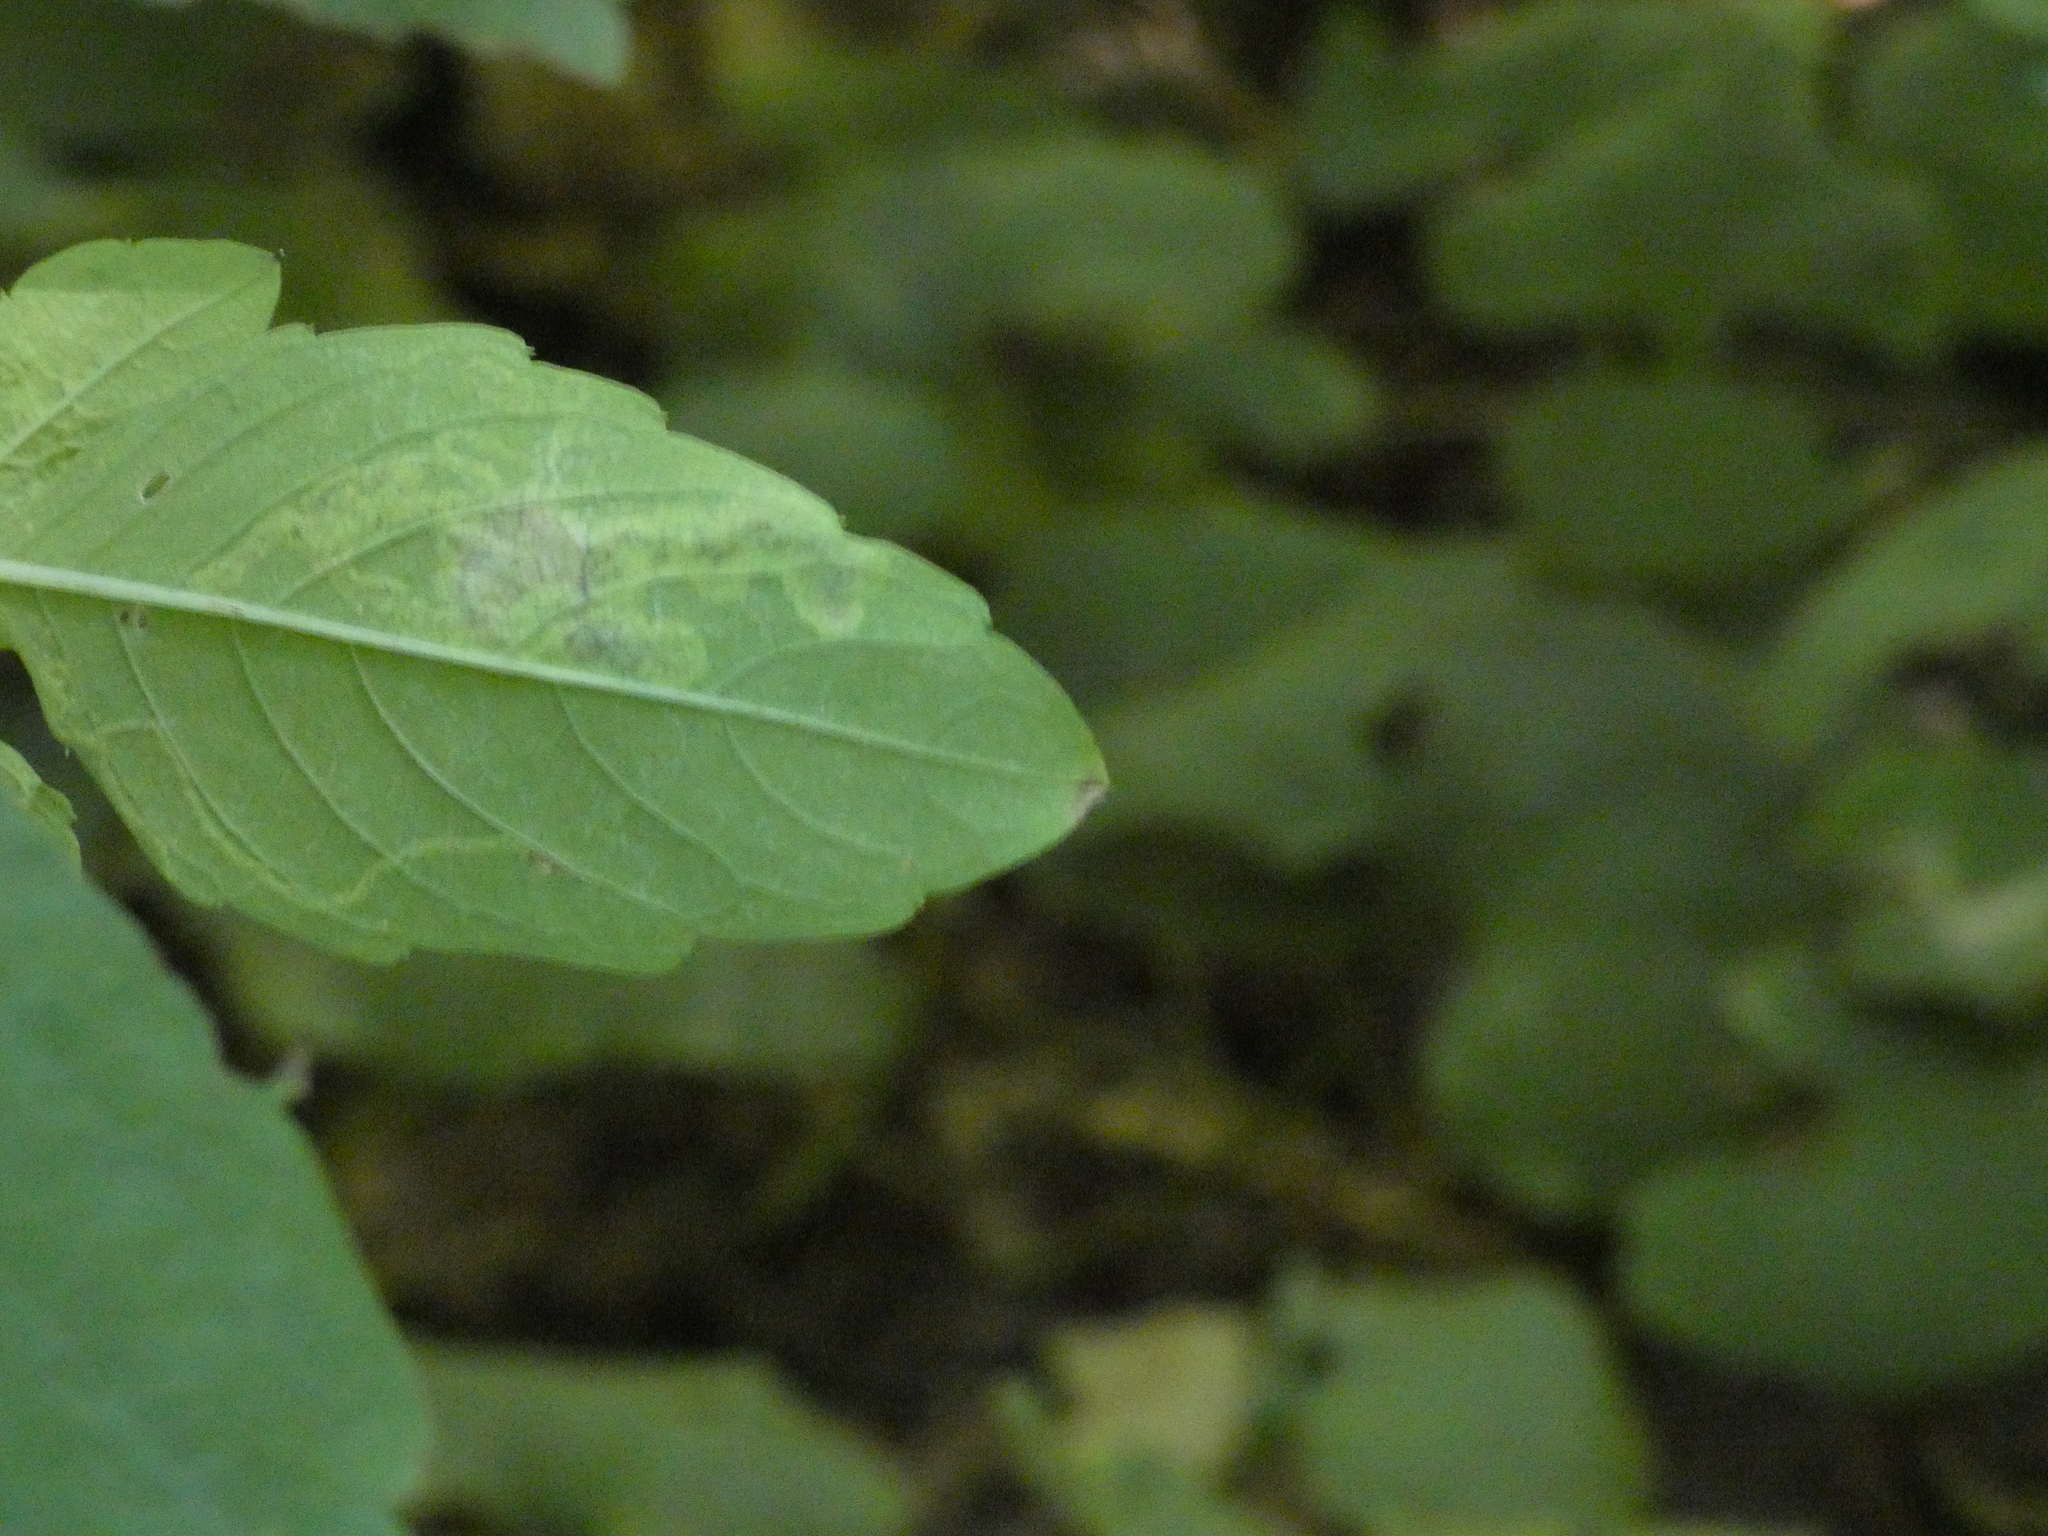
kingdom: Animalia
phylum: Arthropoda
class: Insecta
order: Diptera
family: Agromyzidae
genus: Phytoliriomyza
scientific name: Phytoliriomyza melampyga
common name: Jewelweed leaf-miner fly
